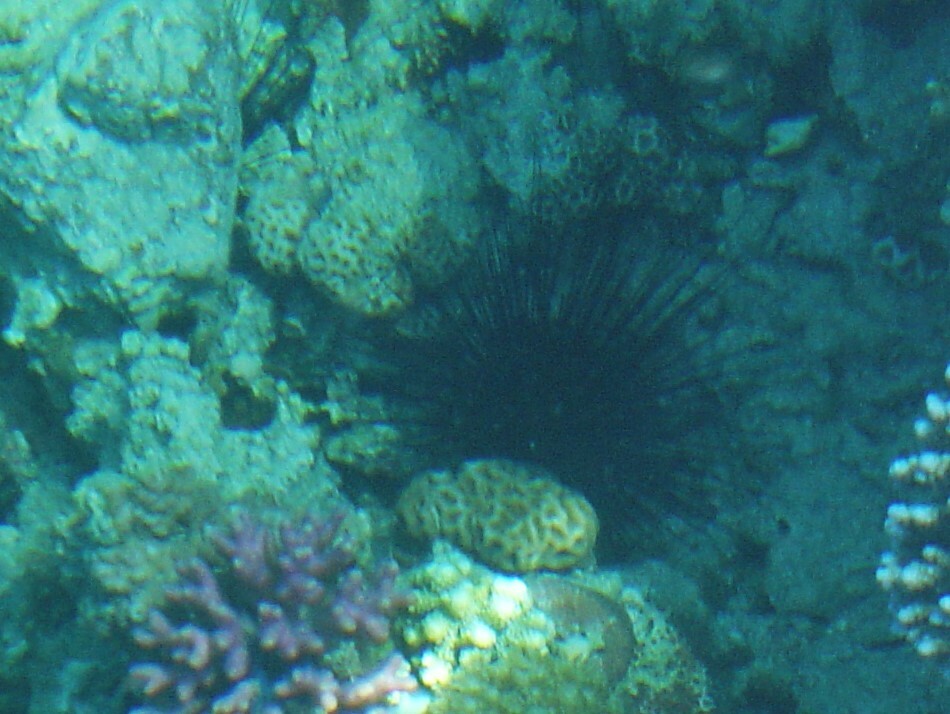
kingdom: Animalia
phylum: Echinodermata
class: Echinoidea
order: Diadematoida
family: Diadematidae
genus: Diadema
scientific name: Diadema setosum
